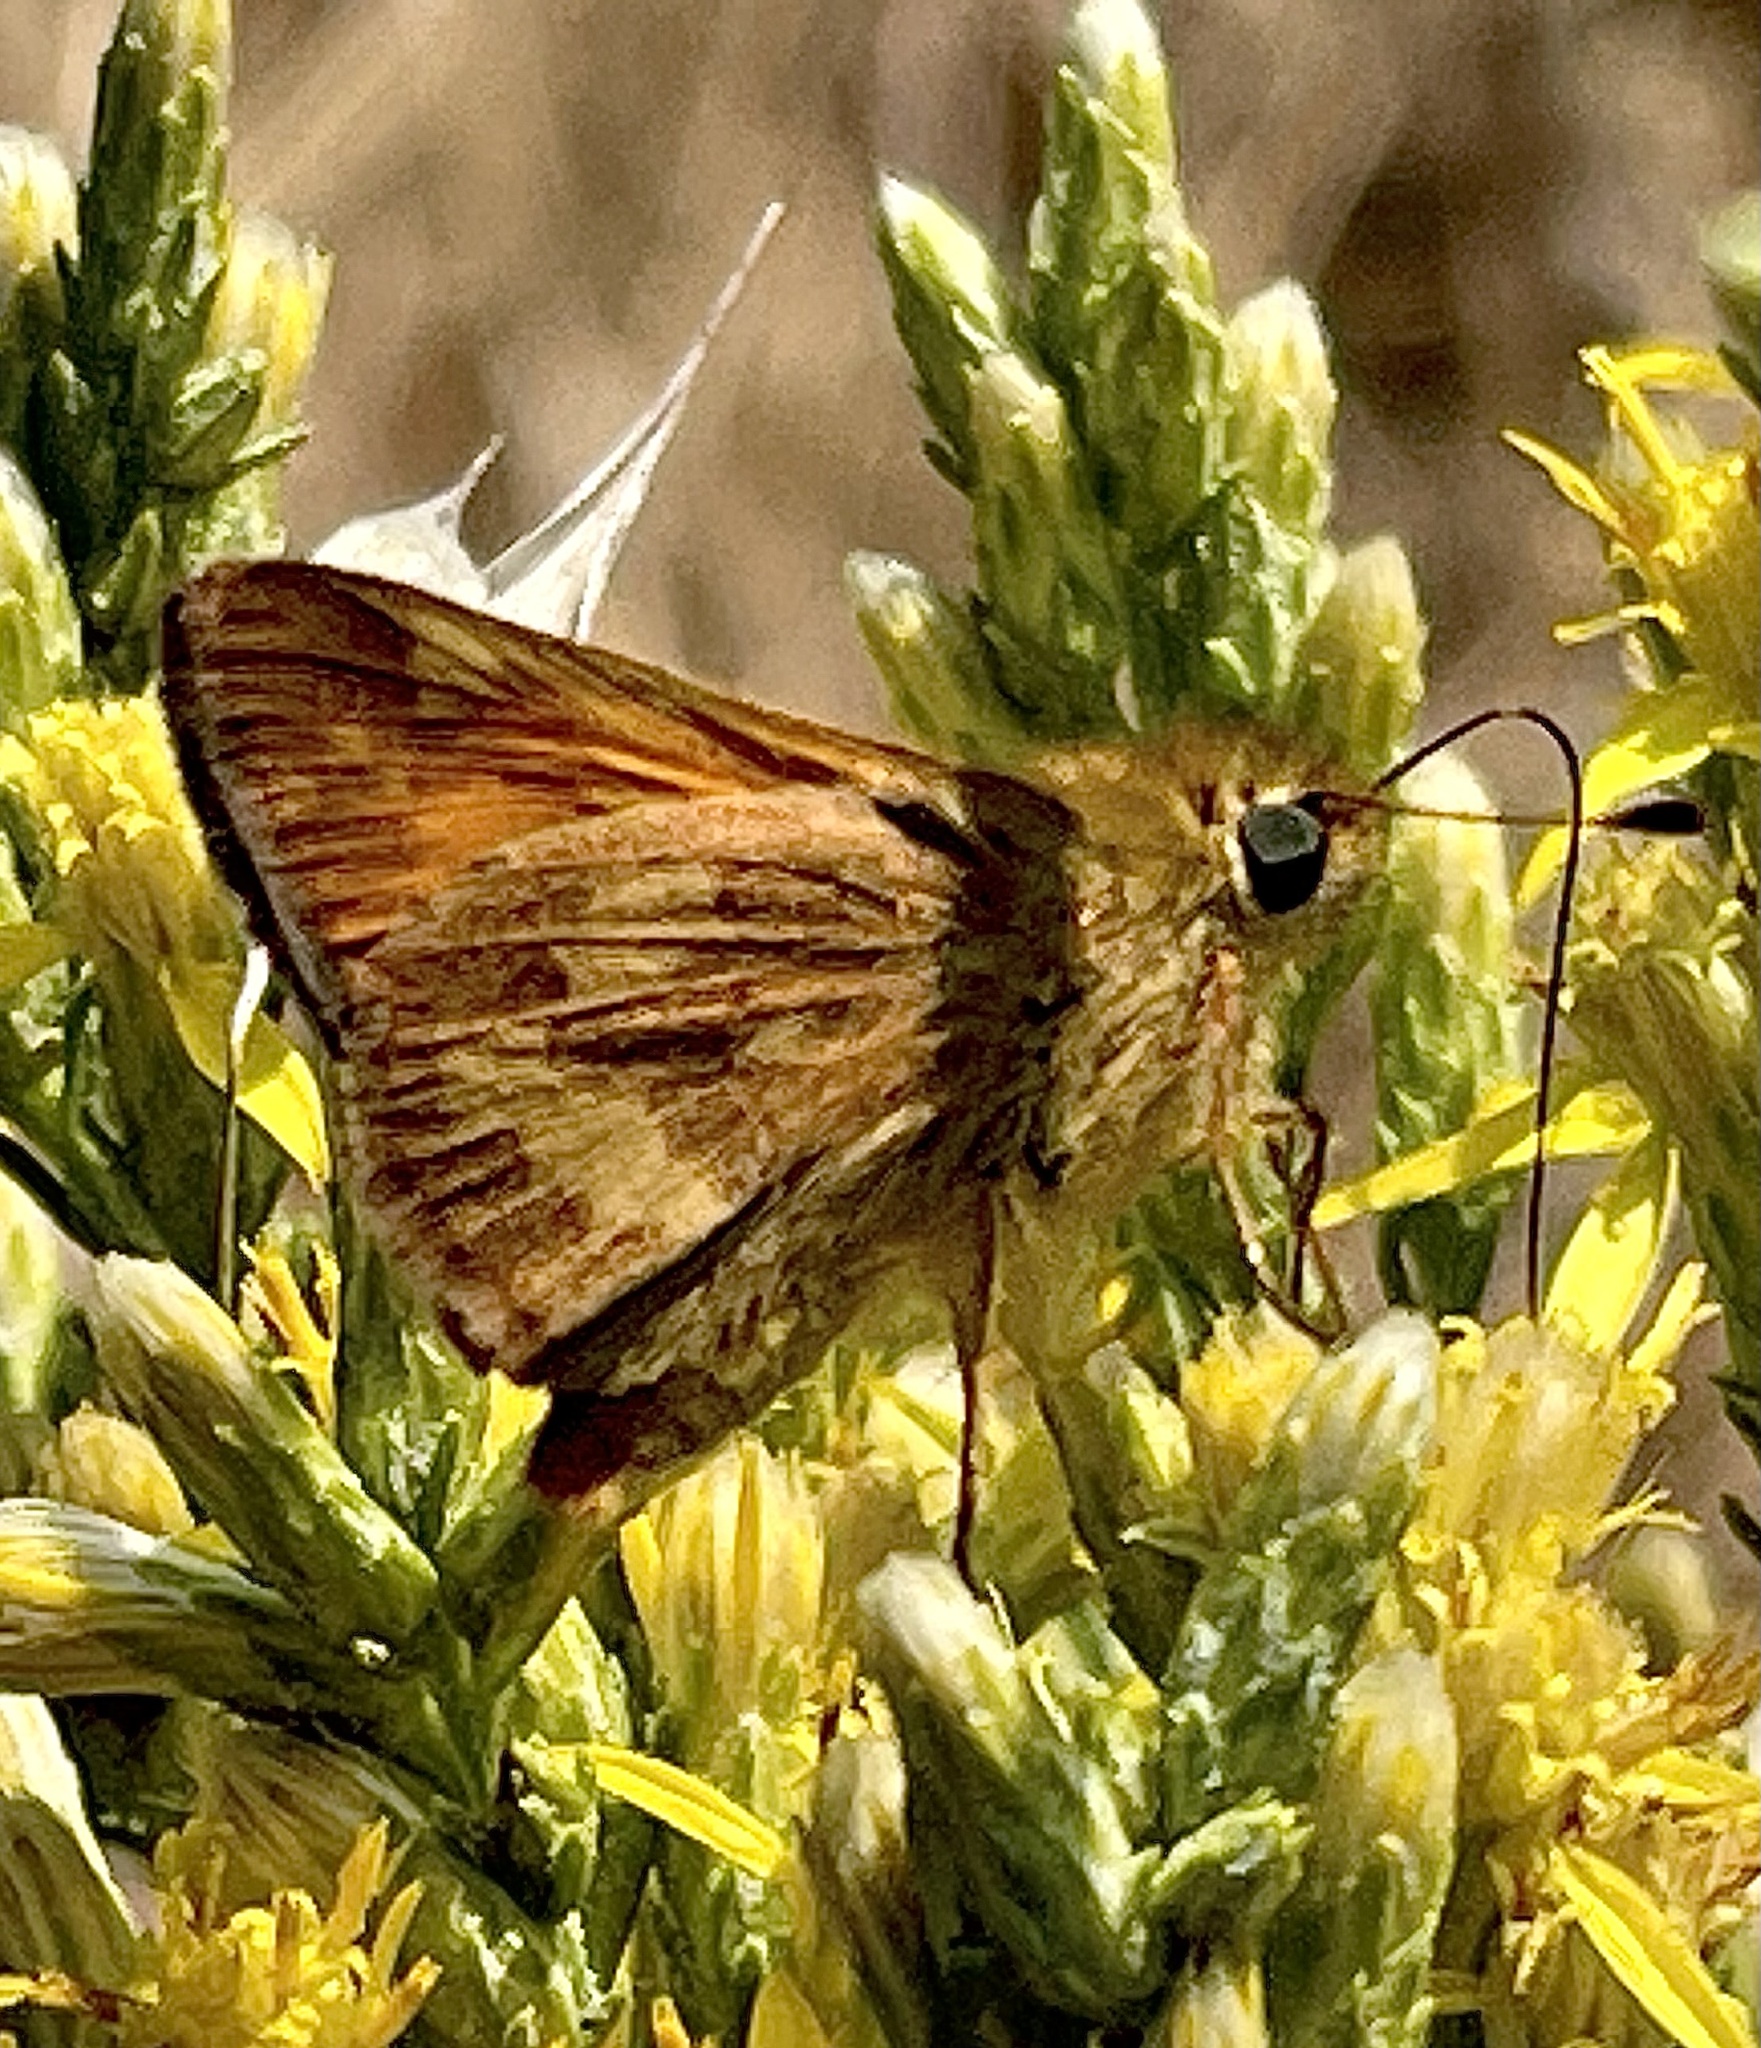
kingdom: Animalia
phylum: Arthropoda
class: Insecta
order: Lepidoptera
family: Hesperiidae
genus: Lon
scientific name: Lon melane
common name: Umber skipper
